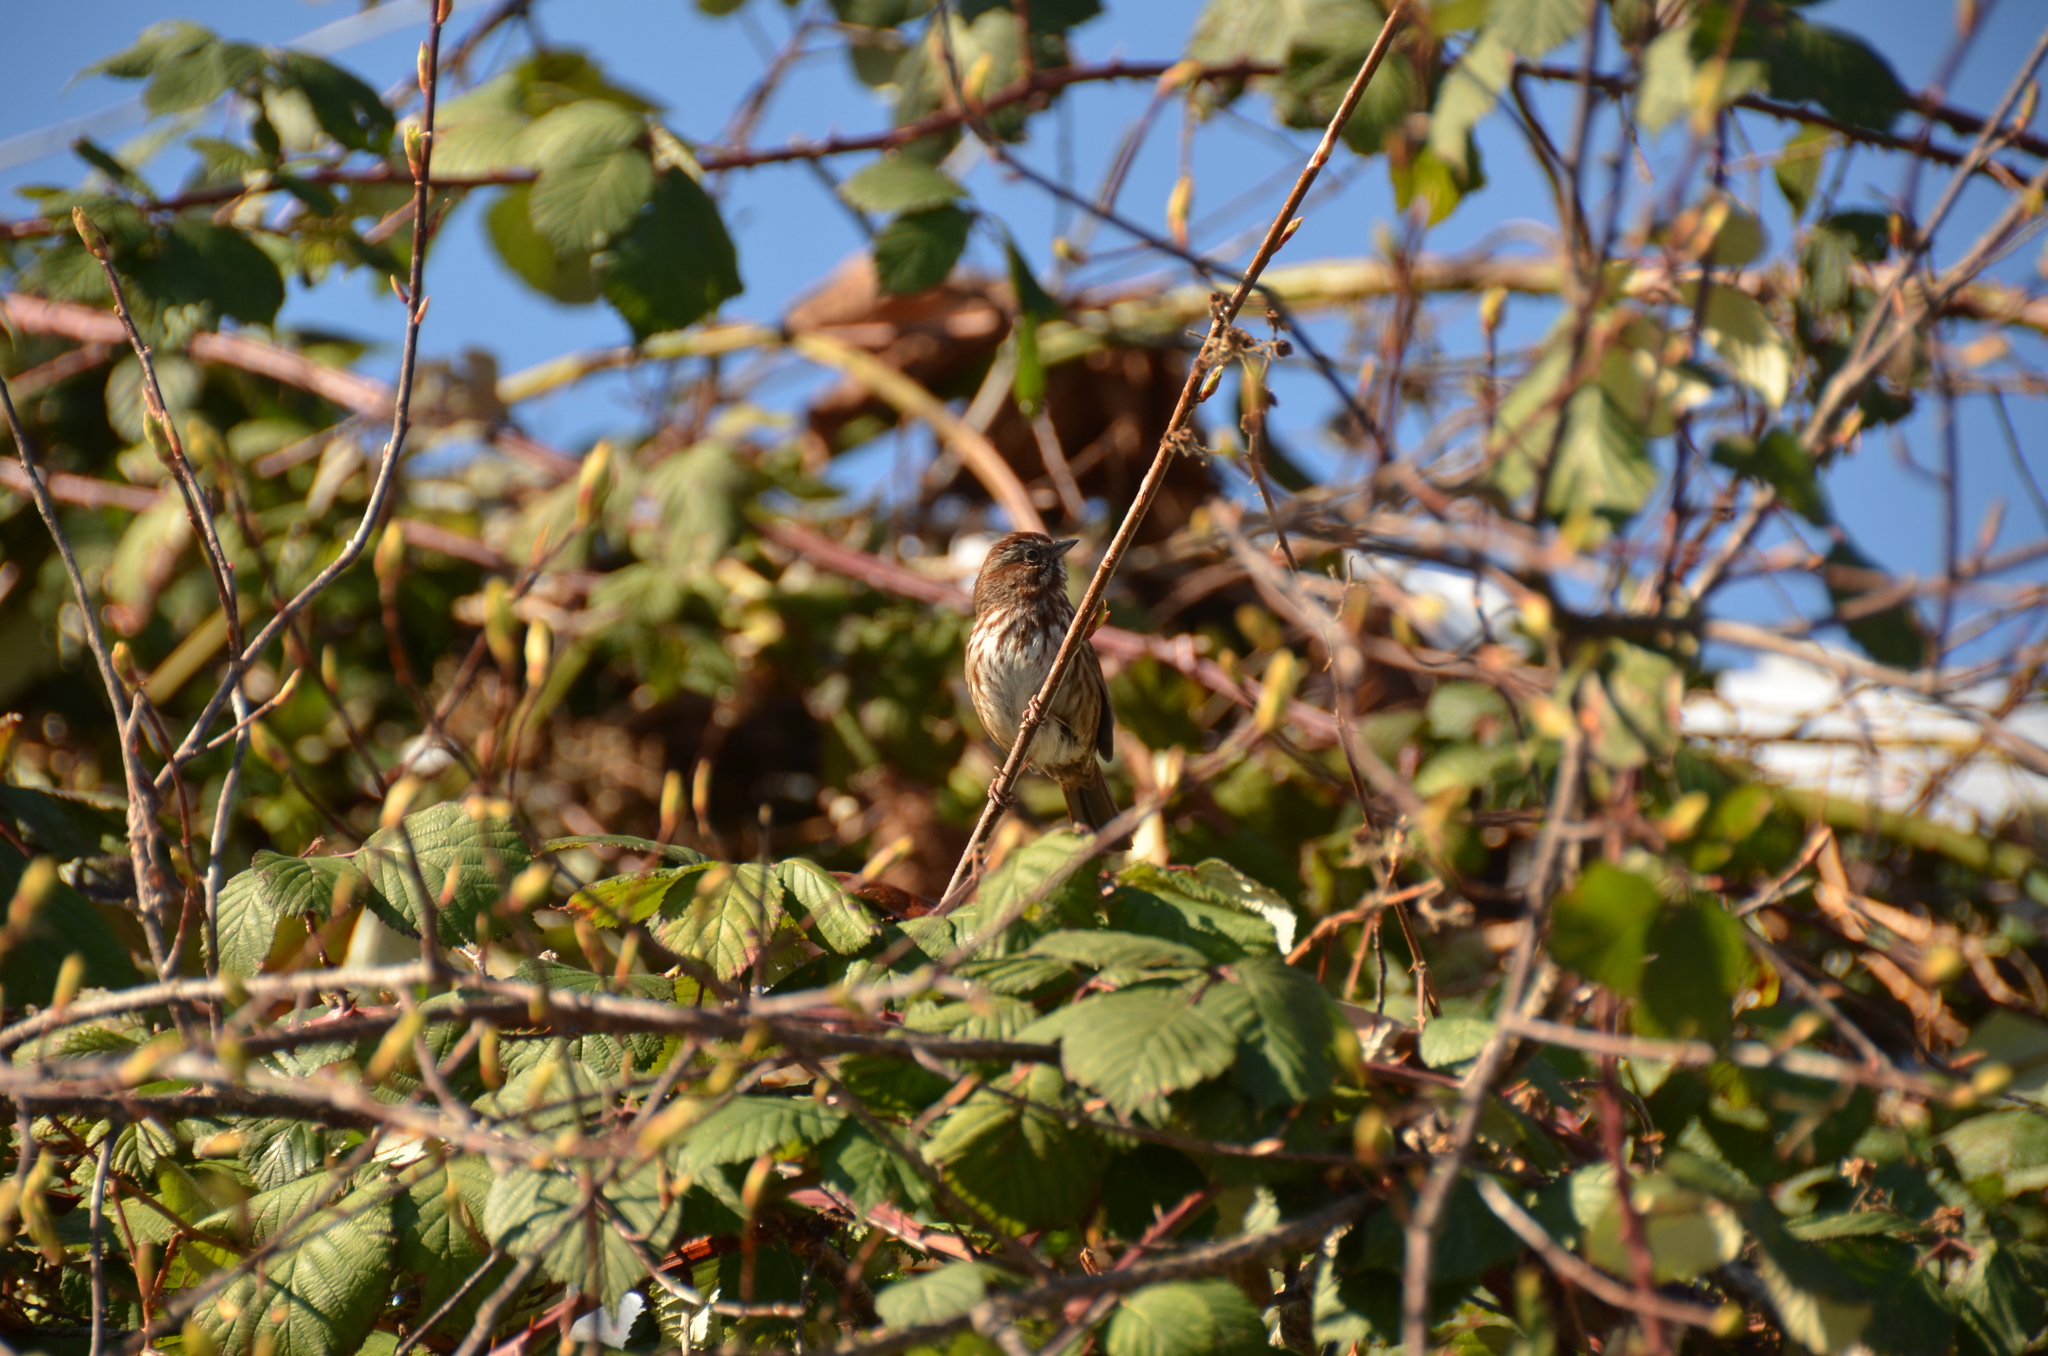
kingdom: Animalia
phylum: Chordata
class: Aves
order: Passeriformes
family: Passerellidae
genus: Melospiza
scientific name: Melospiza melodia
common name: Song sparrow
